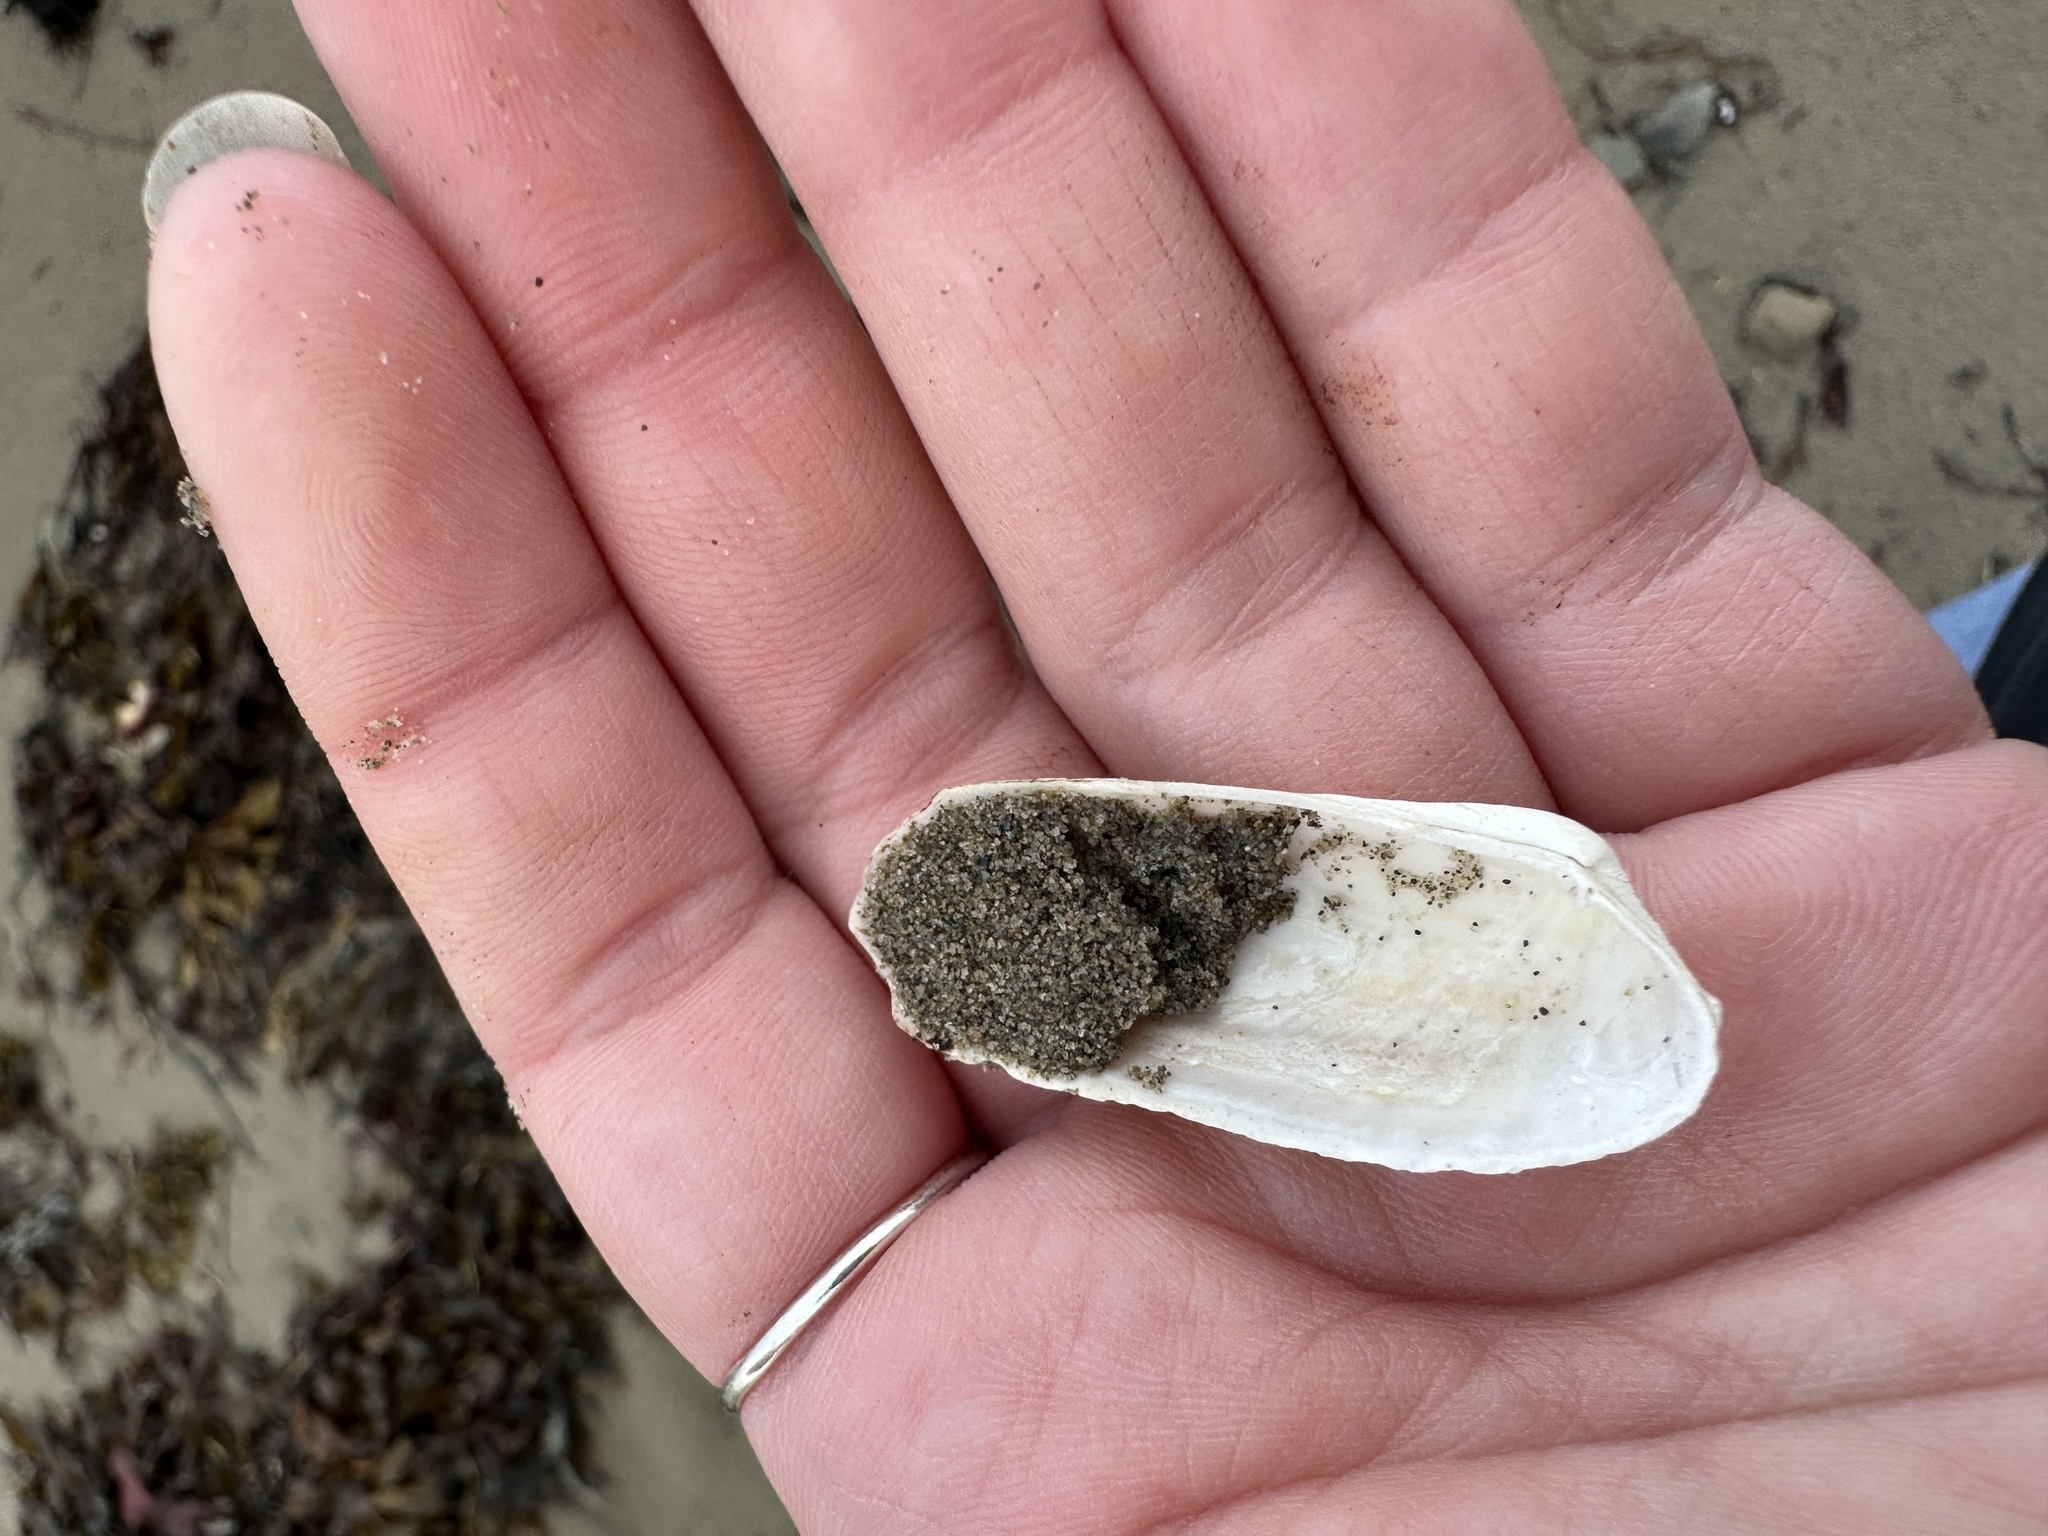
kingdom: Animalia
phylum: Mollusca
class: Bivalvia
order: Venerida
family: Veneridae
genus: Petricolaria
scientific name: Petricolaria pholadiformis
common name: American piddock
